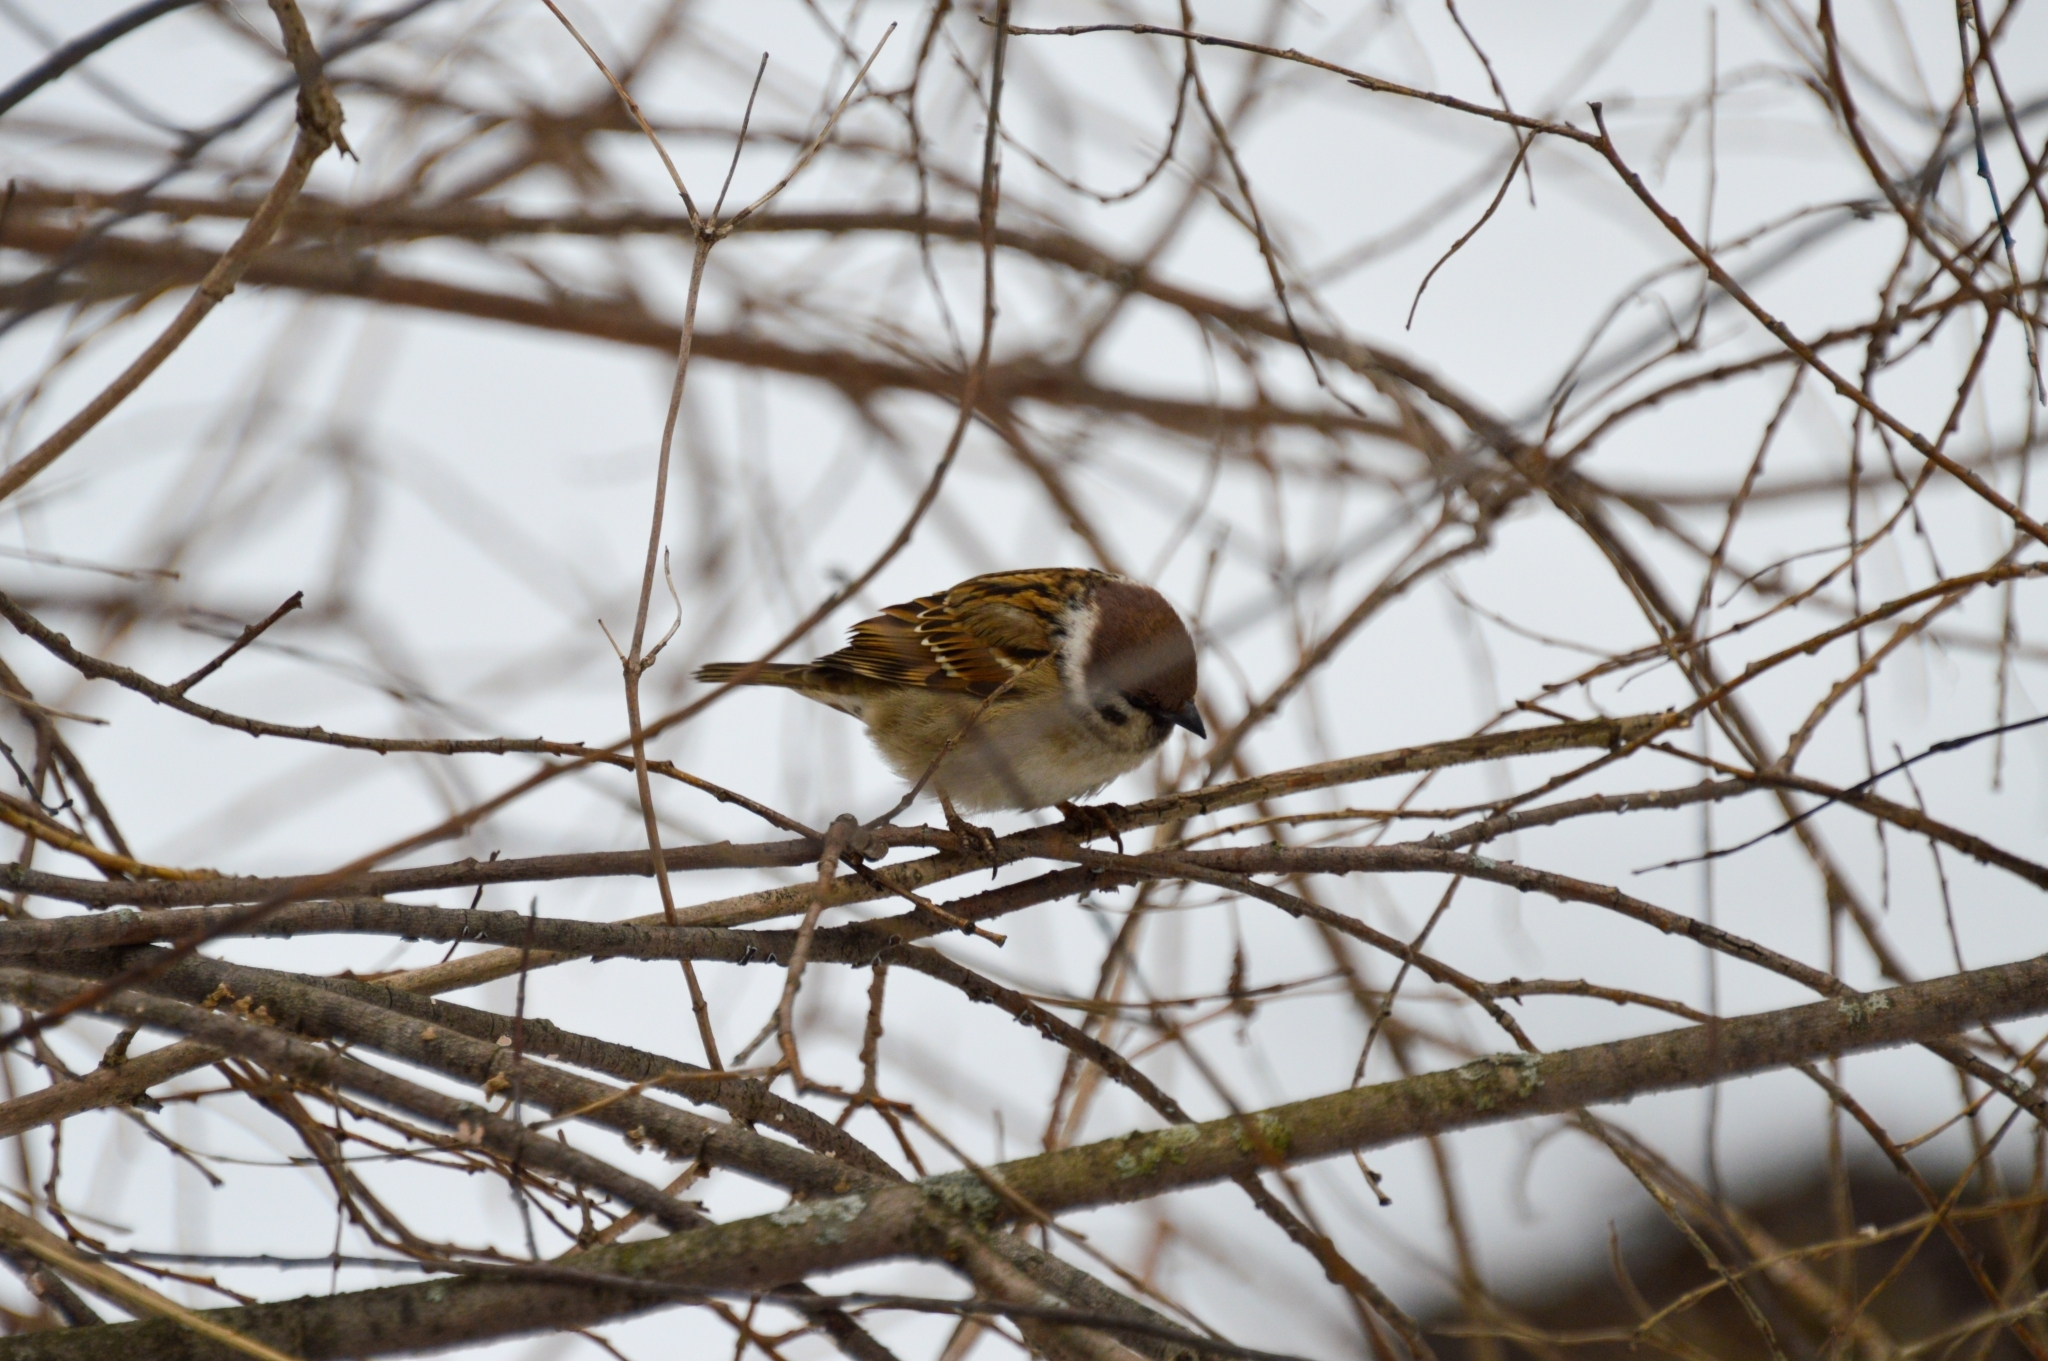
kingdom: Animalia
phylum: Chordata
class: Aves
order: Passeriformes
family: Passeridae
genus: Passer
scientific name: Passer montanus
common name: Eurasian tree sparrow
